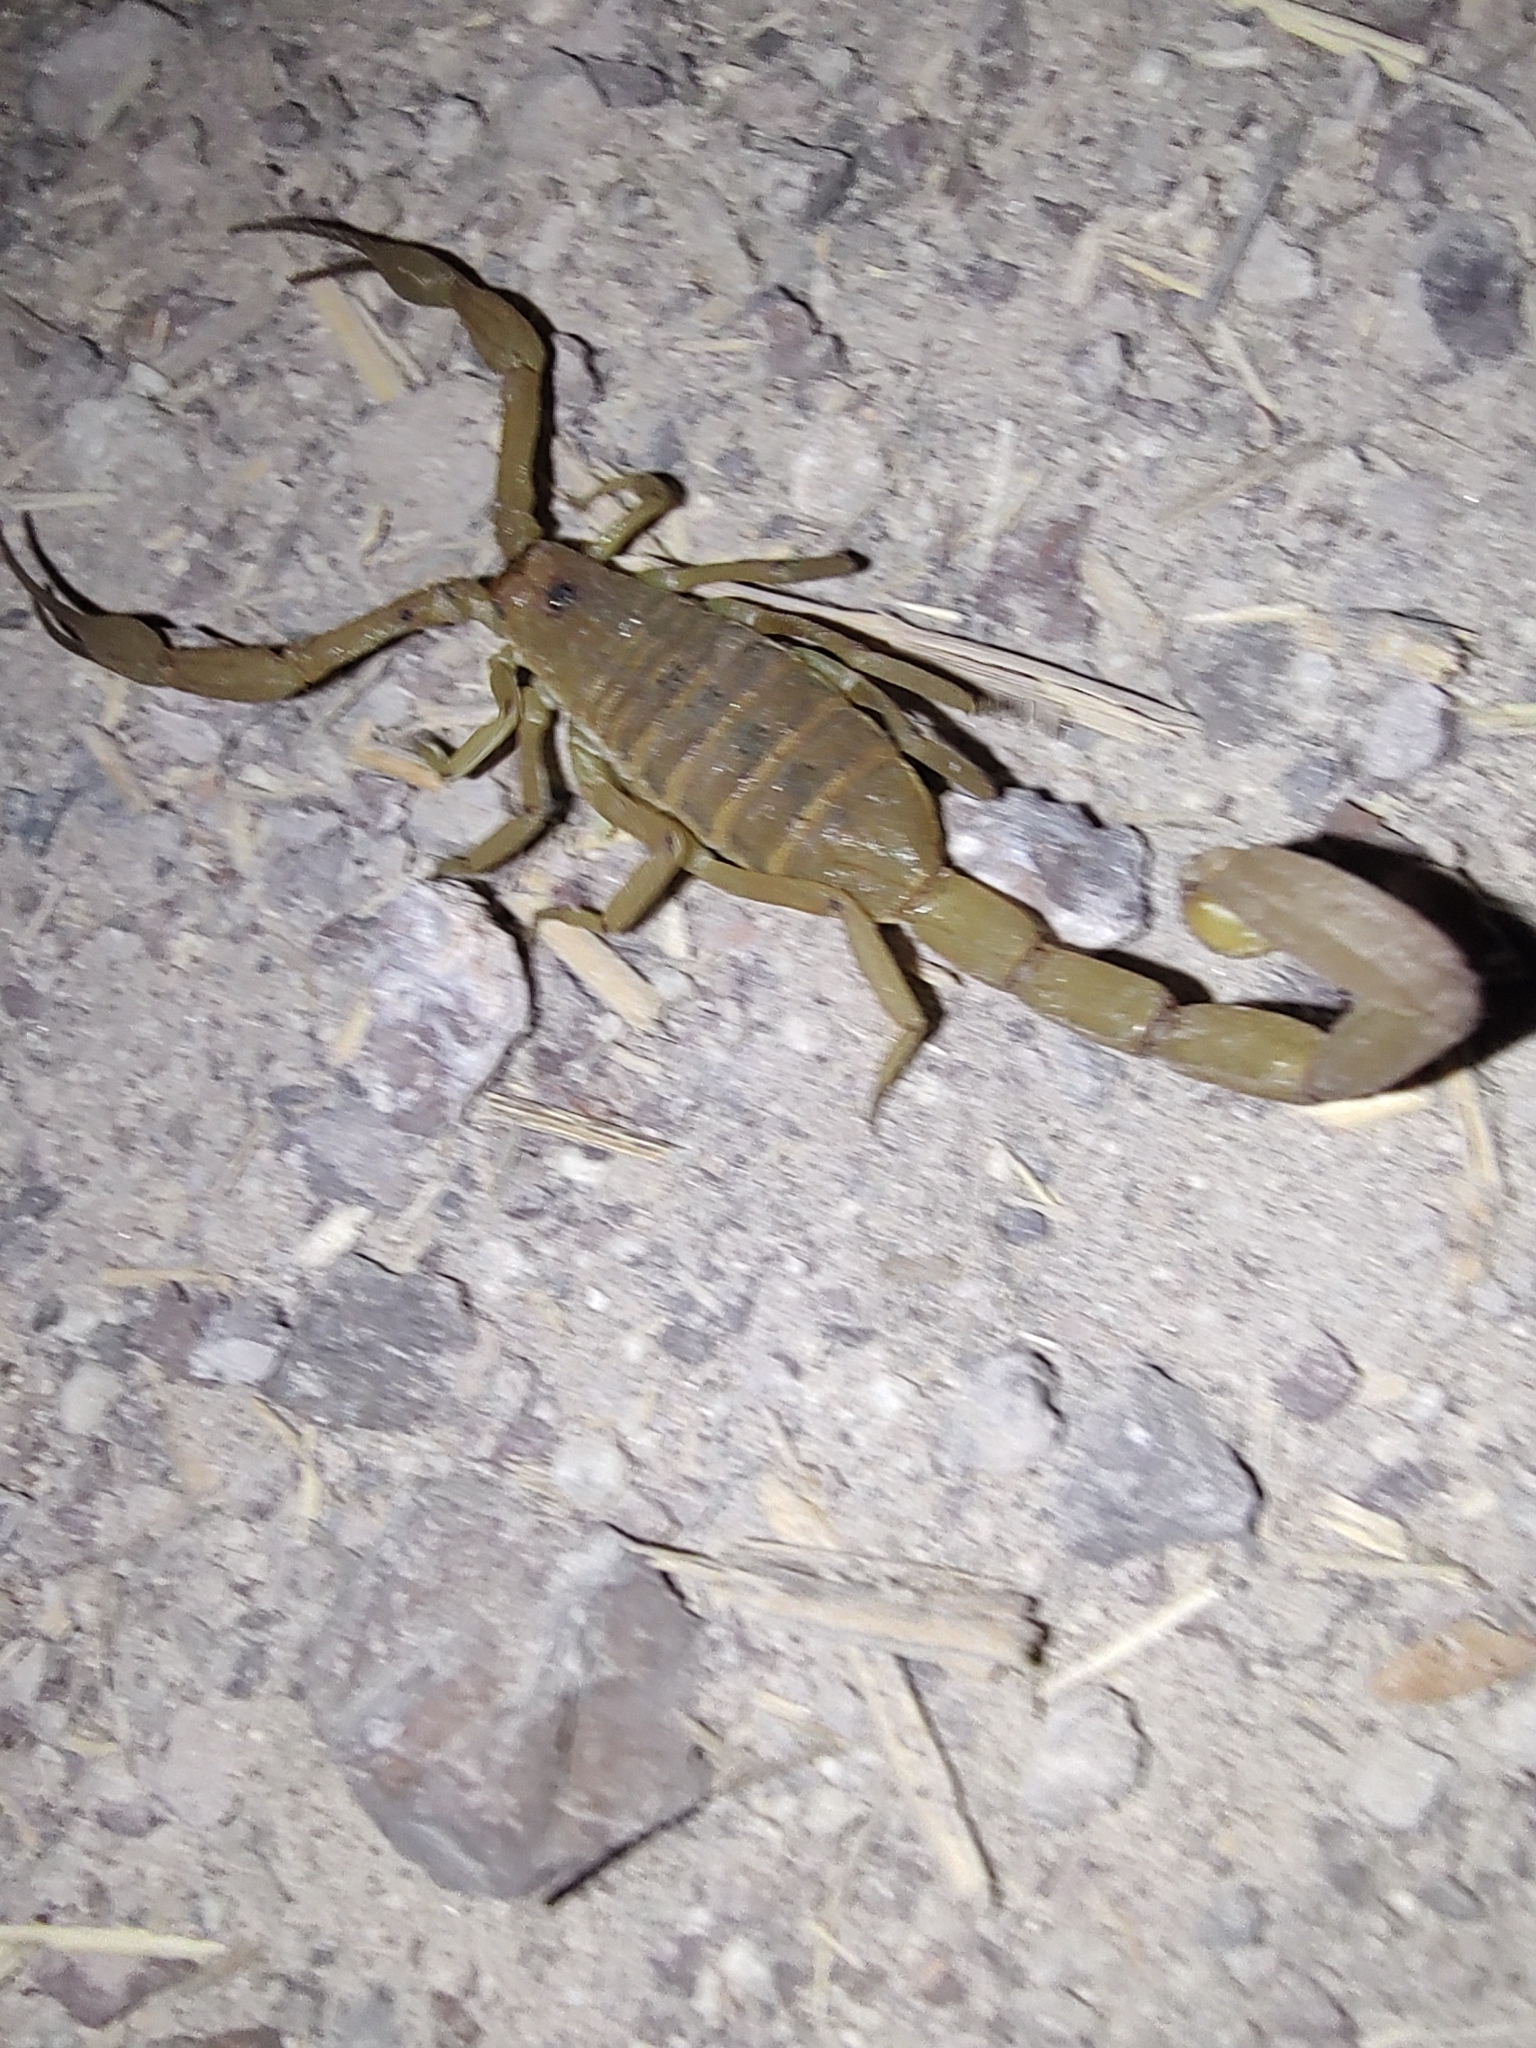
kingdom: Animalia
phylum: Arthropoda
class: Arachnida
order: Scorpiones
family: Buthidae
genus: Centruroides
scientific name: Centruroides exilicauda
